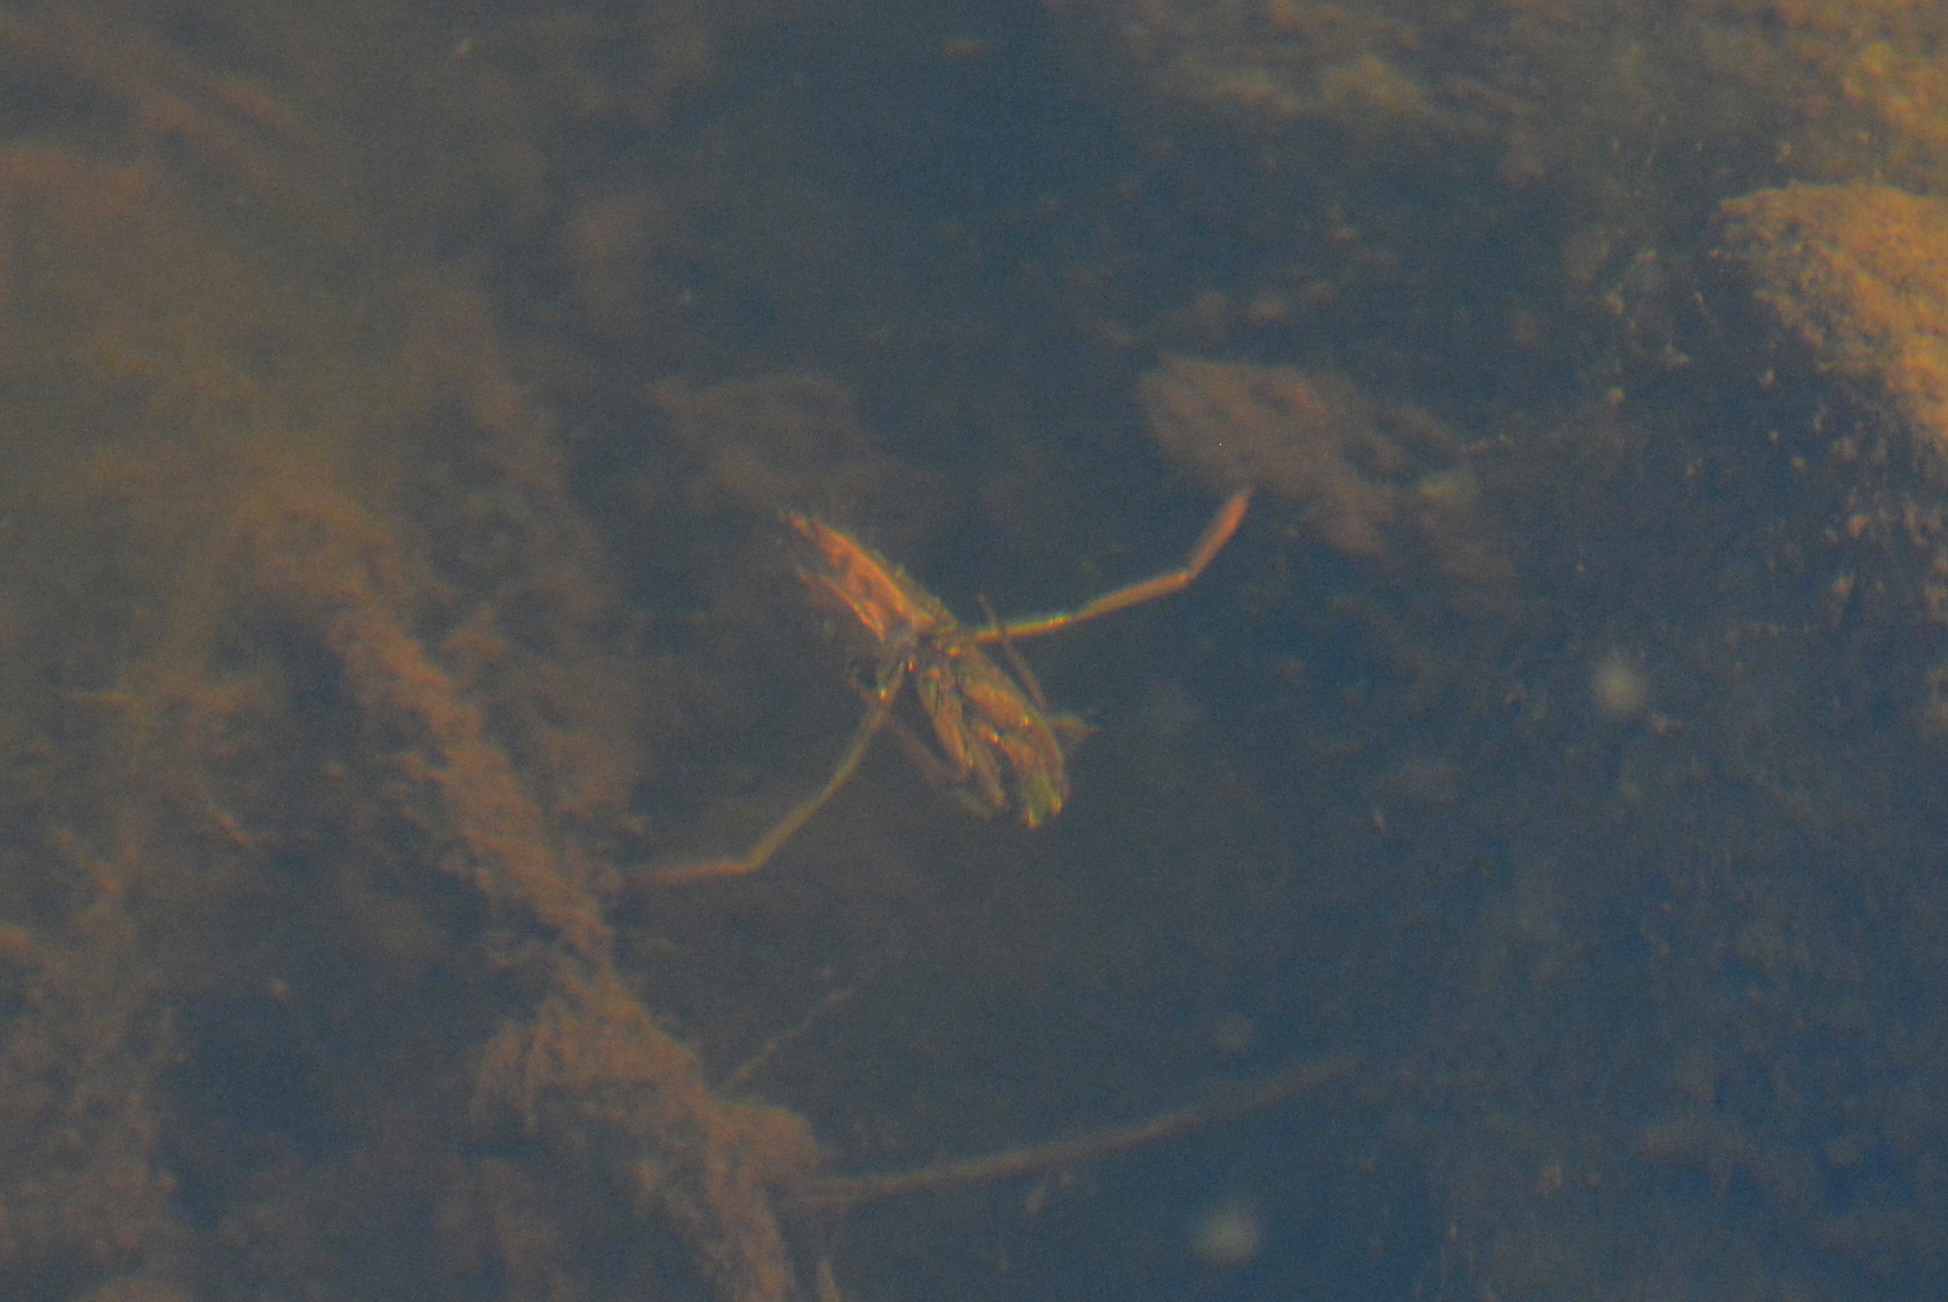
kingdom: Animalia
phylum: Arthropoda
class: Insecta
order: Hemiptera
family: Notonectidae
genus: Notonecta
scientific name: Notonecta
